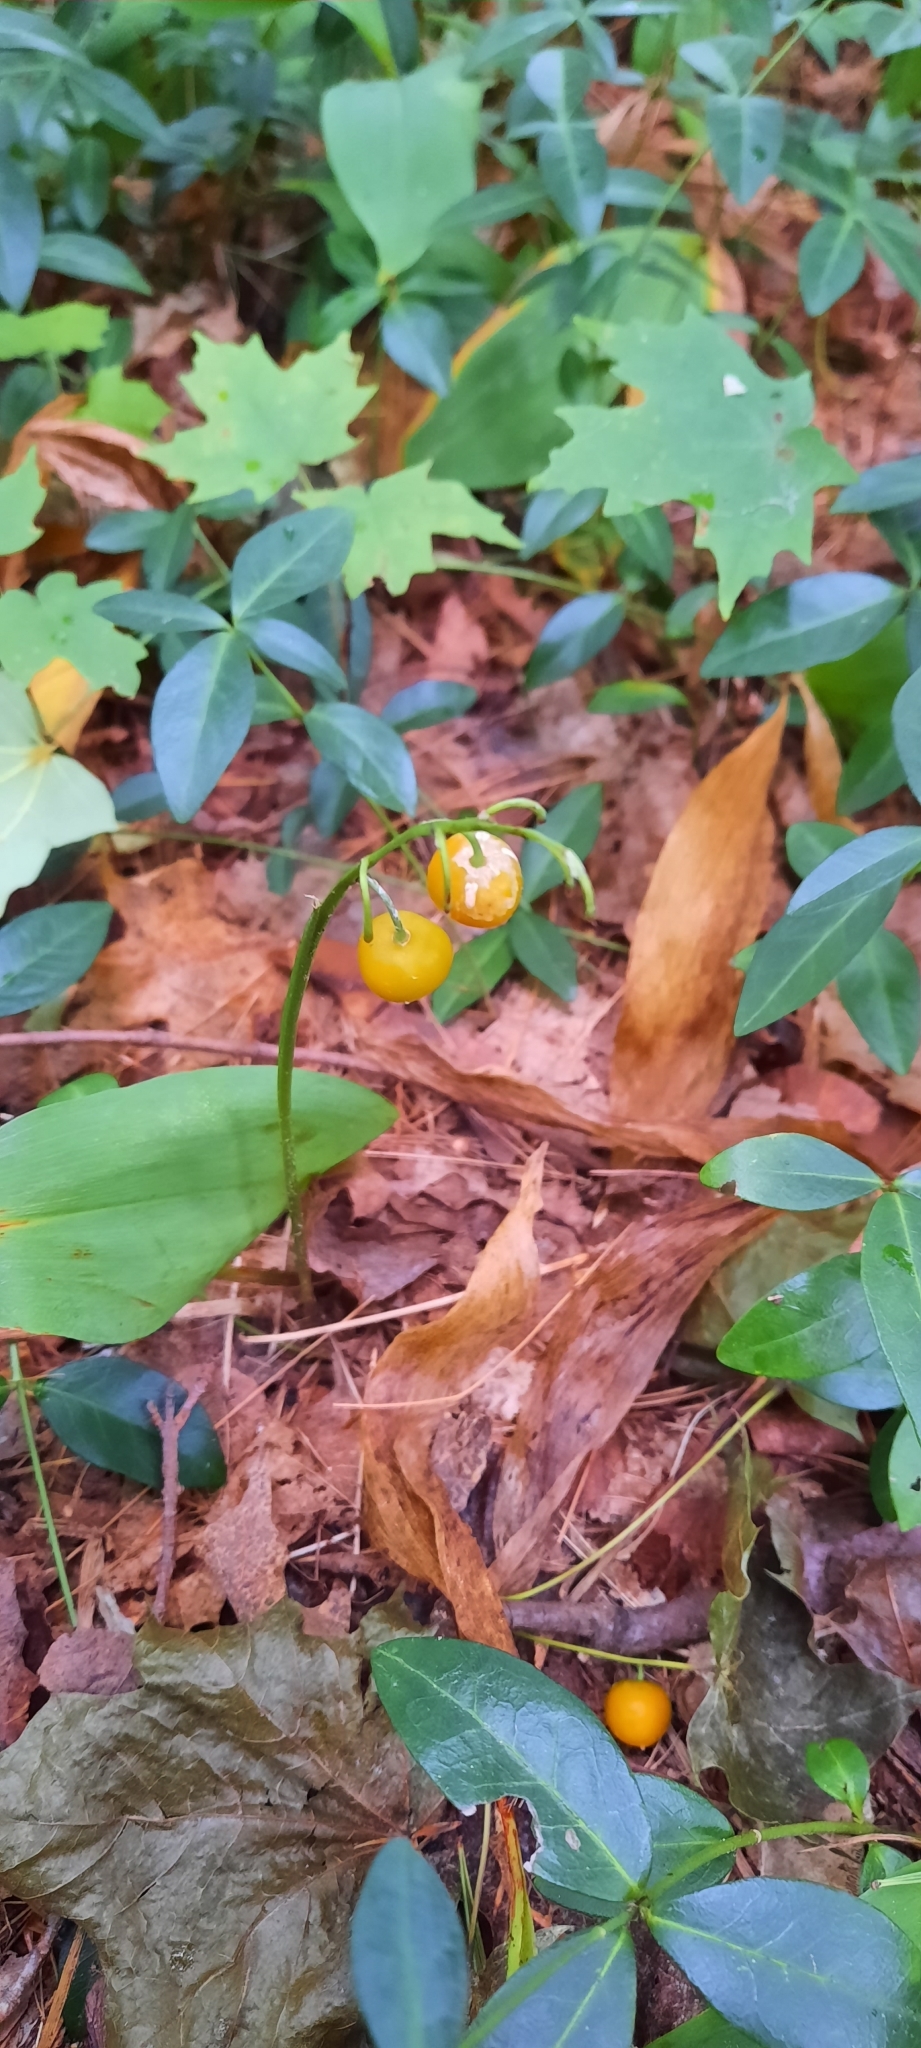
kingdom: Plantae
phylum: Tracheophyta
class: Liliopsida
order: Asparagales
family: Asparagaceae
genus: Convallaria
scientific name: Convallaria majalis
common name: Lily-of-the-valley
